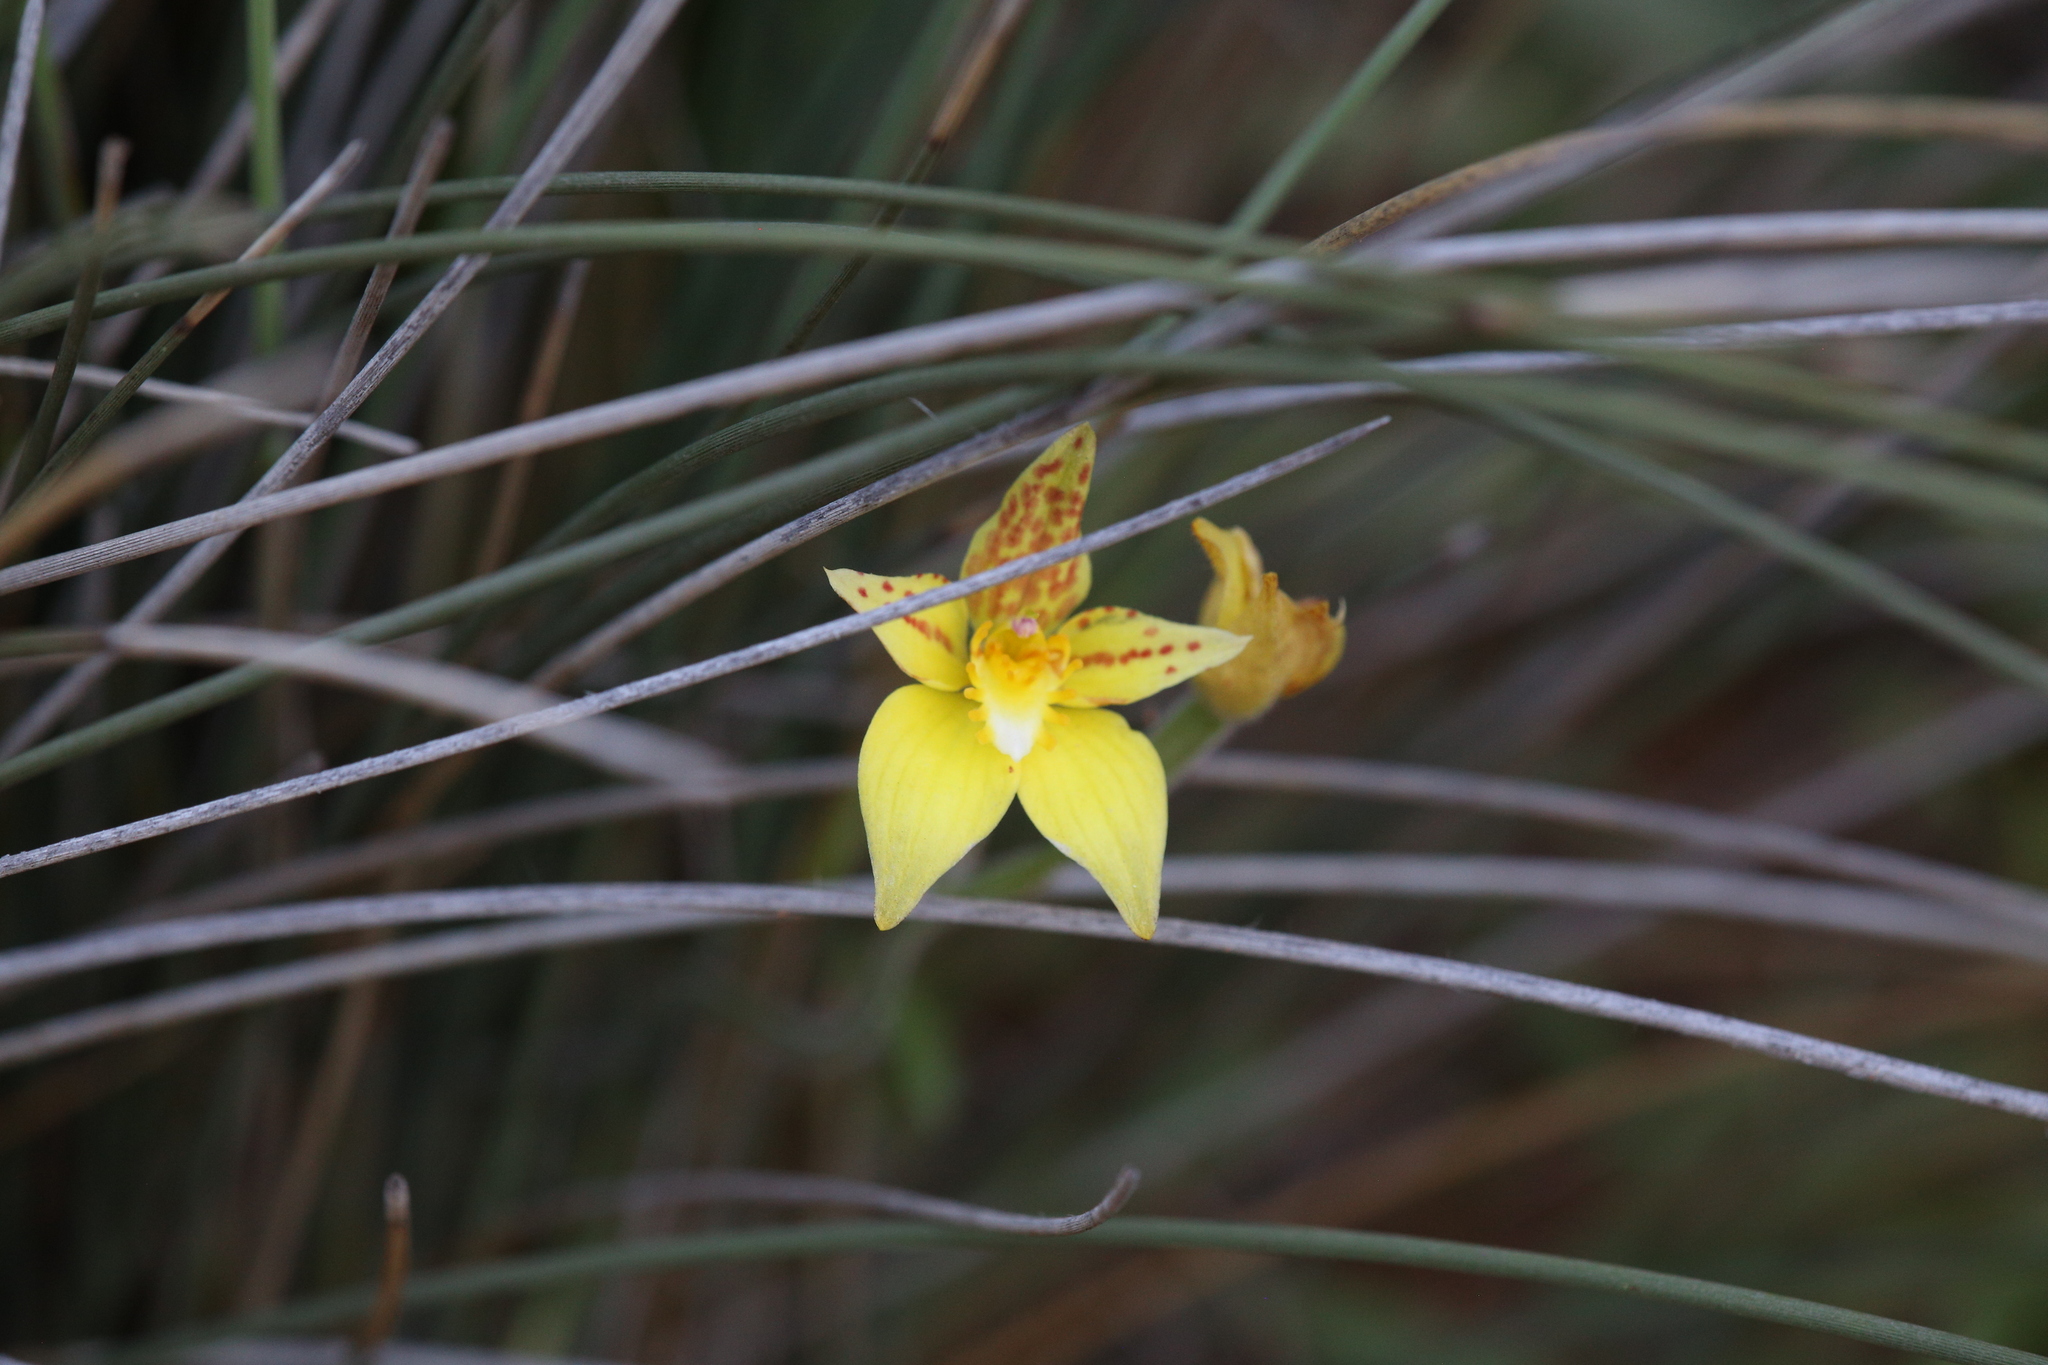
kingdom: Plantae
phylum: Tracheophyta
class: Liliopsida
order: Asparagales
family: Orchidaceae
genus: Caladenia
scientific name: Caladenia flava
